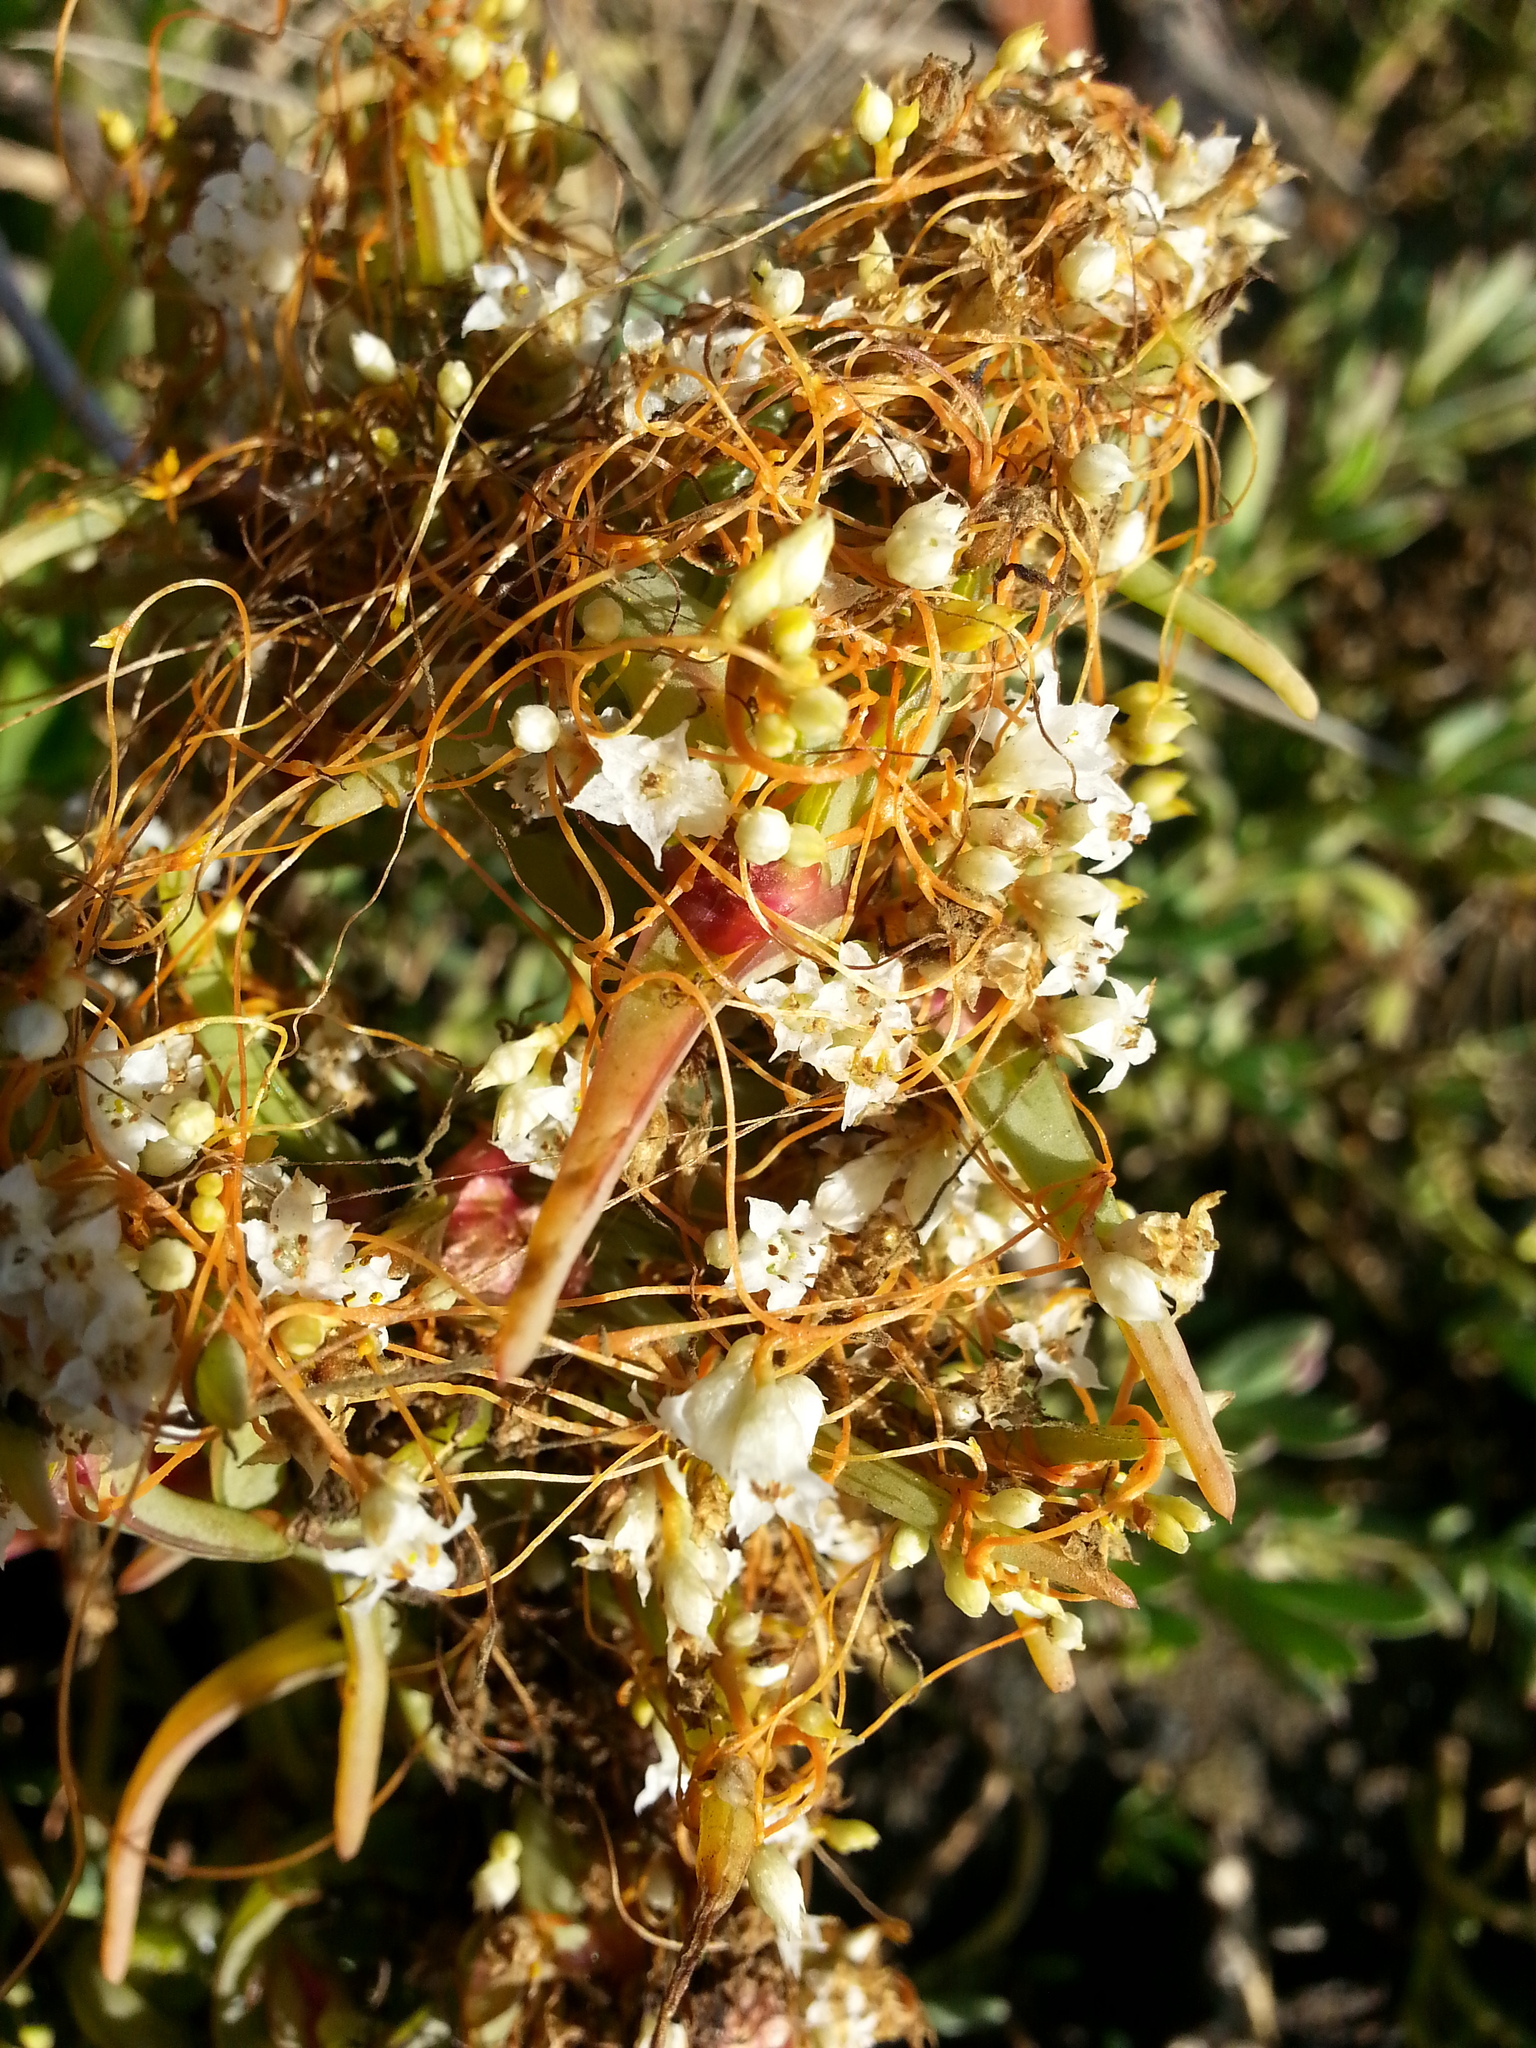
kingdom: Plantae
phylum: Tracheophyta
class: Magnoliopsida
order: Solanales
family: Convolvulaceae
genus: Cuscuta
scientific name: Cuscuta pacifica
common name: Large saltmarsh dodder
